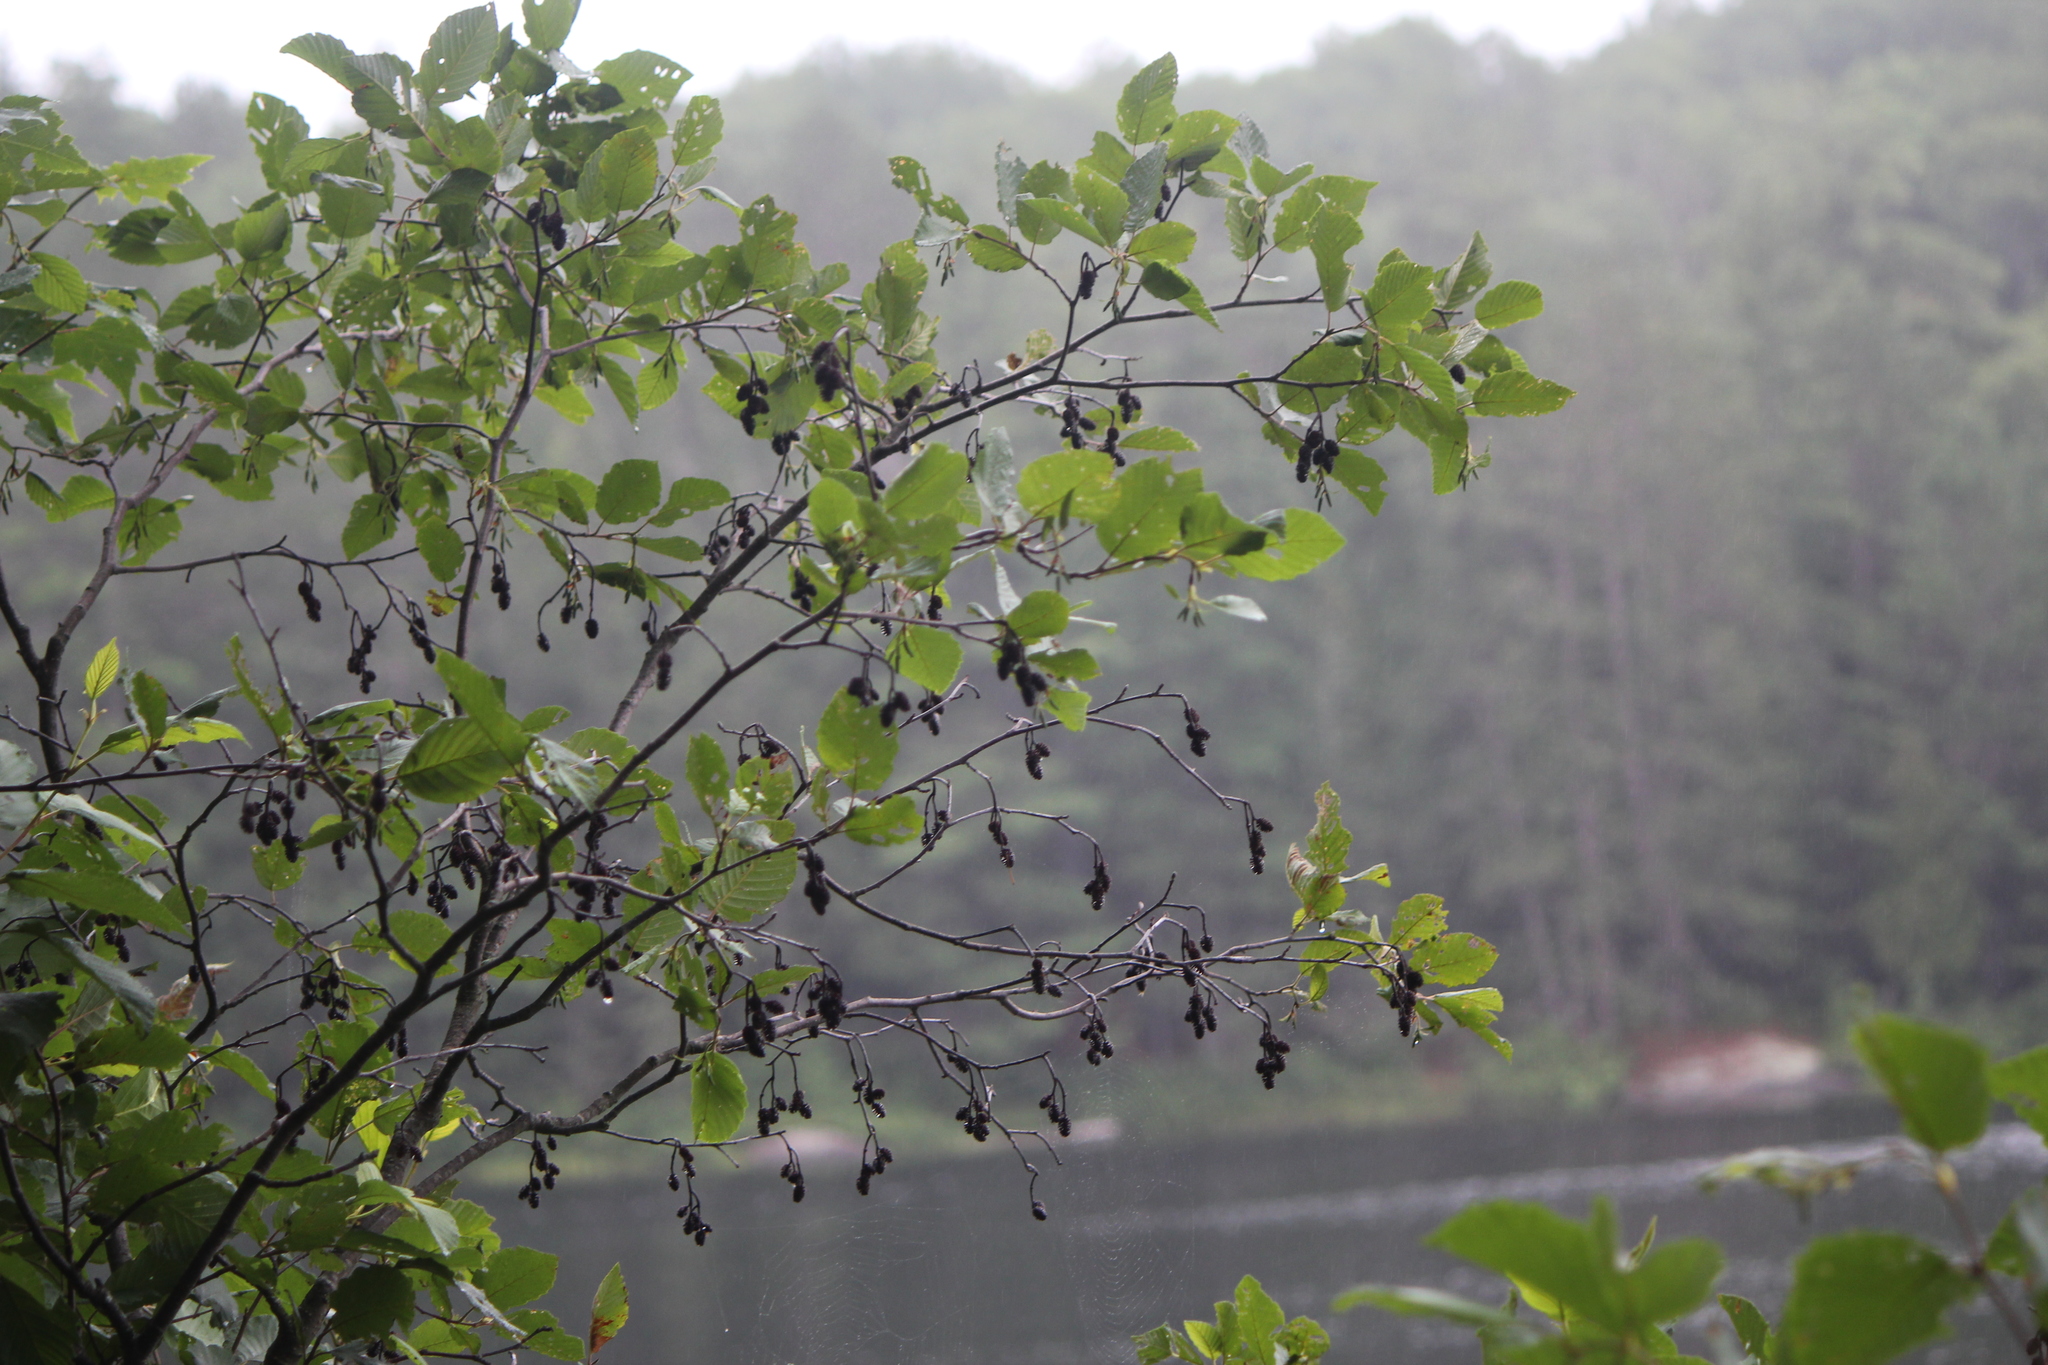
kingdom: Plantae
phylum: Tracheophyta
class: Magnoliopsida
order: Fagales
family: Betulaceae
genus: Alnus
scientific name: Alnus incana
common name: Grey alder
